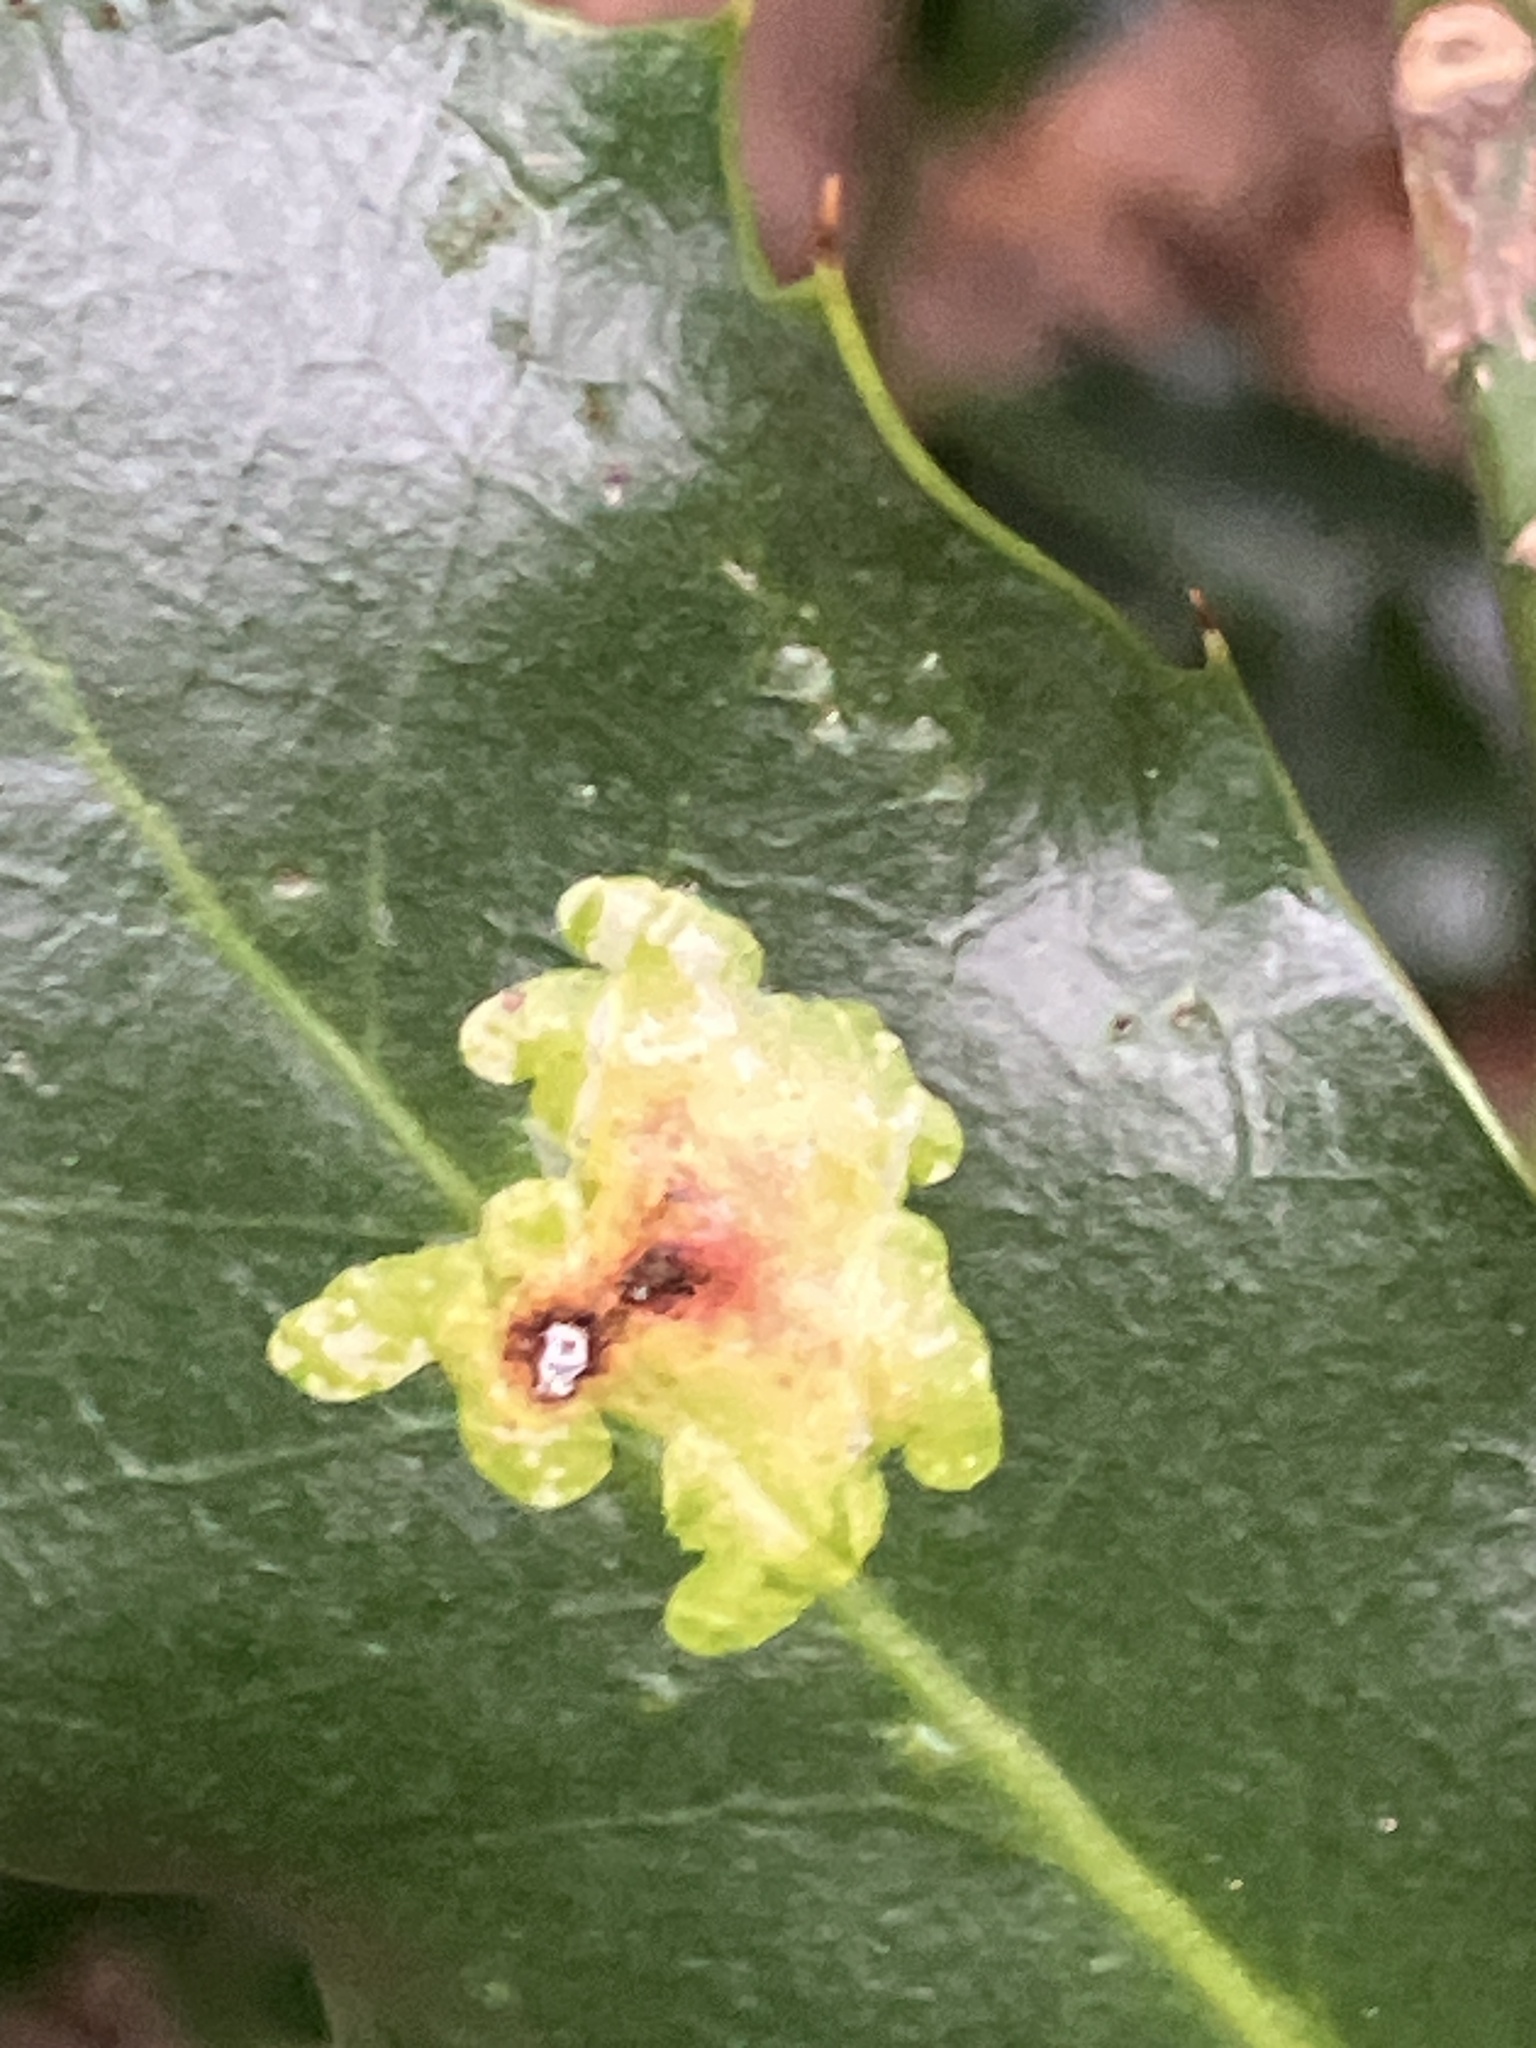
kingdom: Animalia
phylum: Arthropoda
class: Insecta
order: Diptera
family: Agromyzidae
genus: Phytomyza
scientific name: Phytomyza ilicis
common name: Holly leafminer
